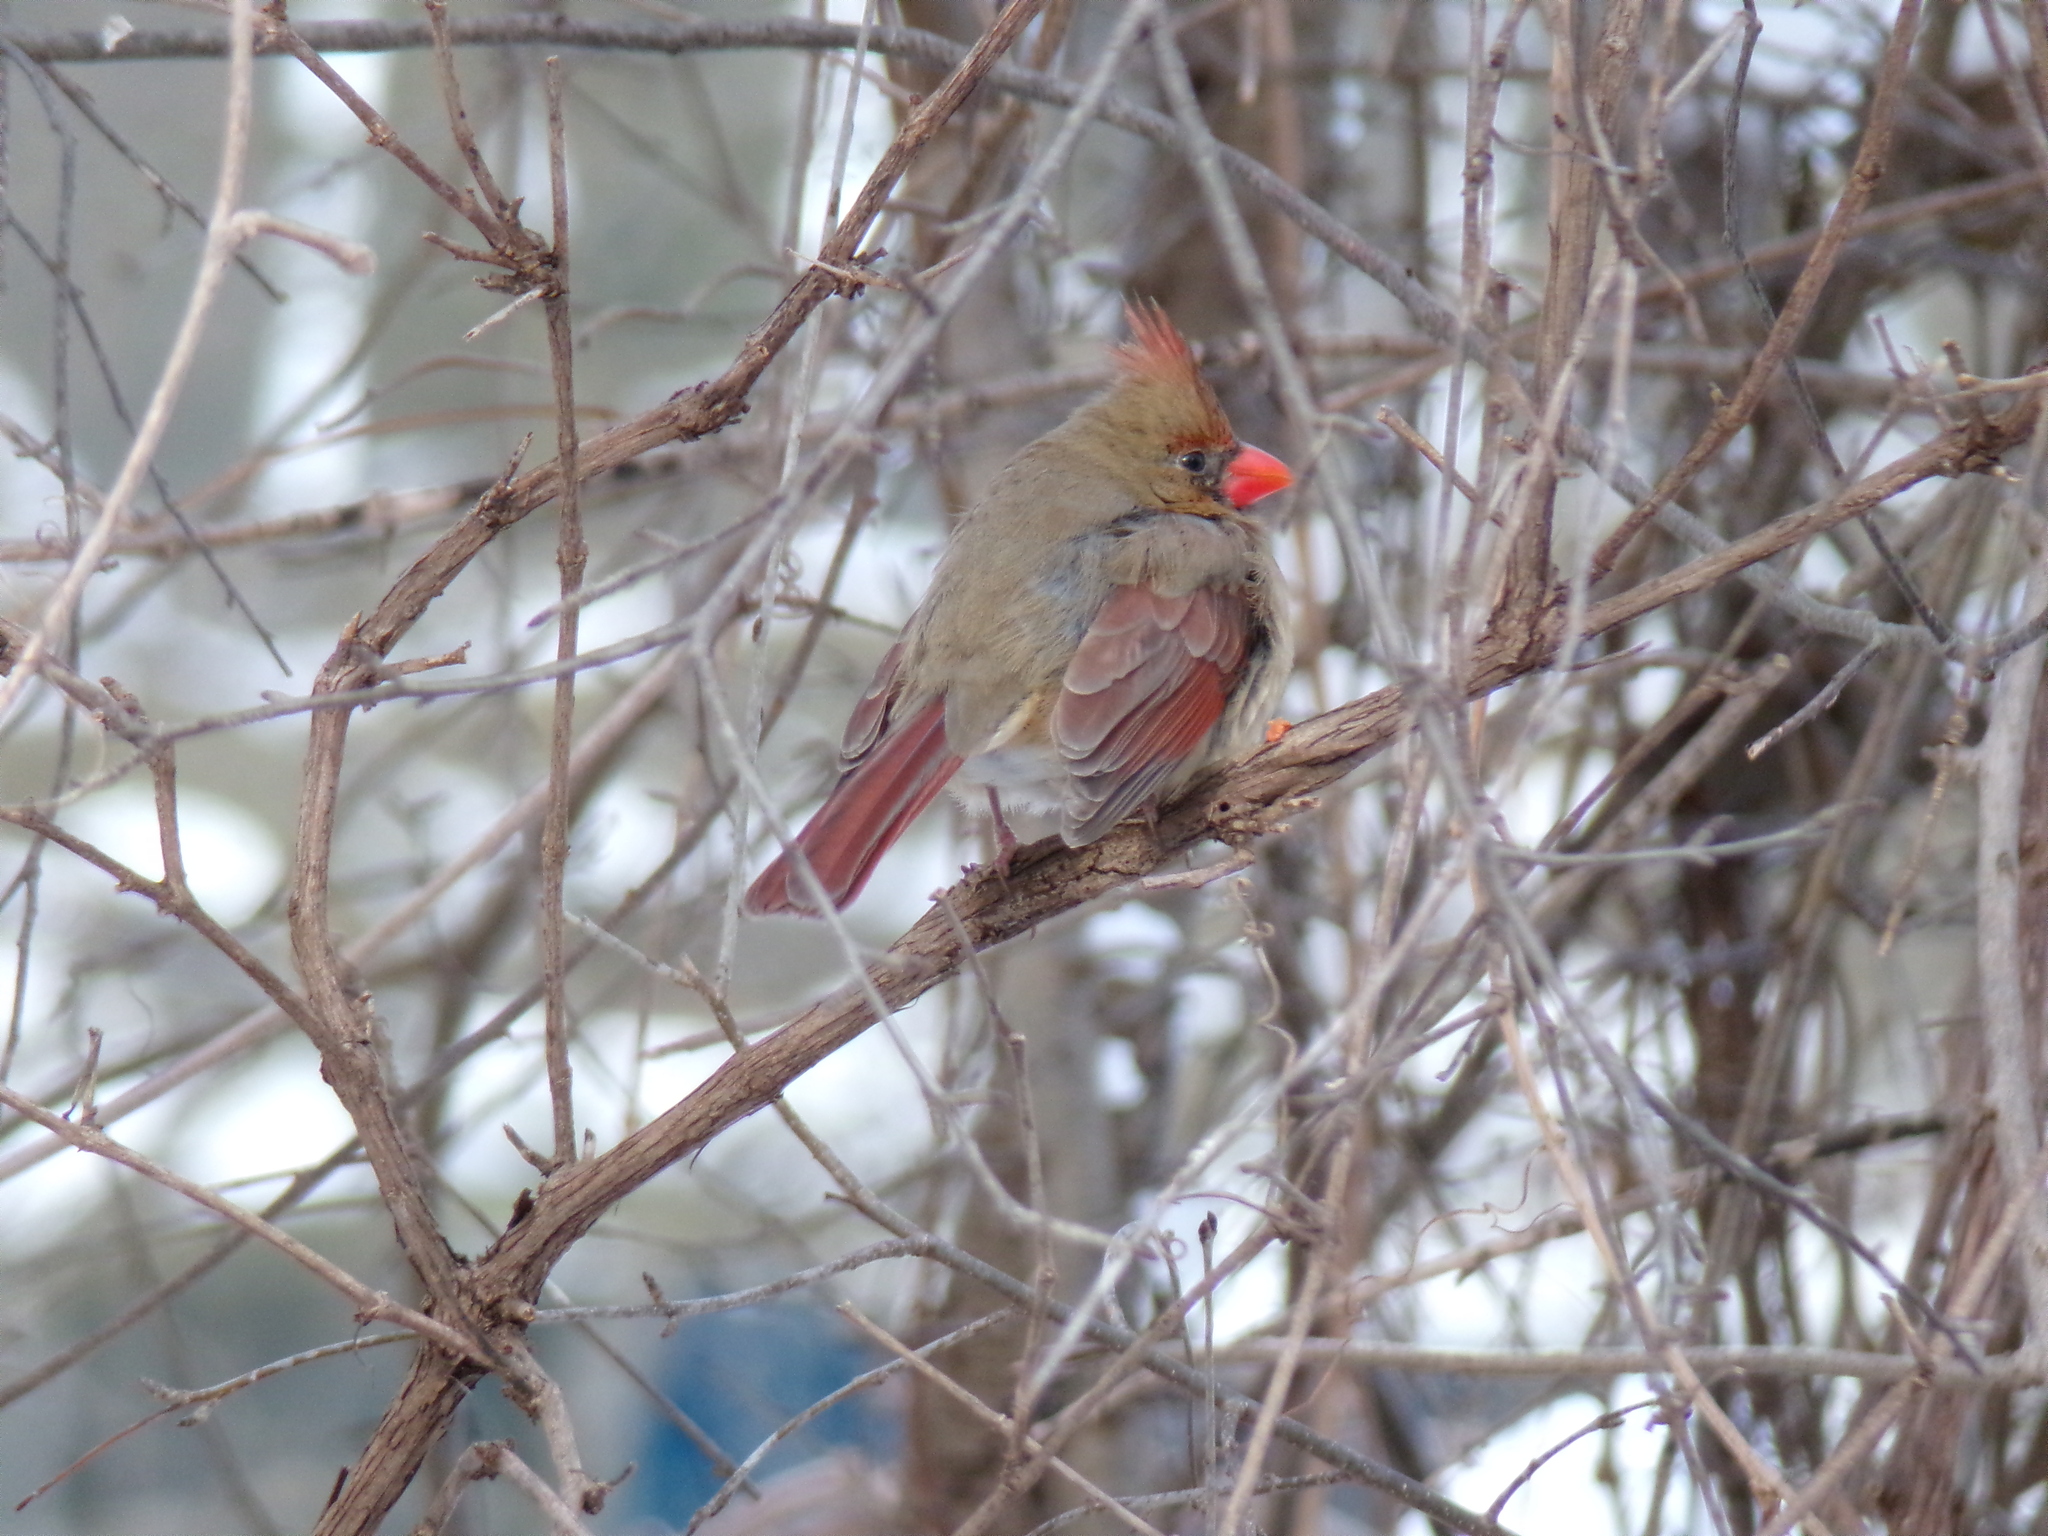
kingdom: Animalia
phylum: Chordata
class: Aves
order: Passeriformes
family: Cardinalidae
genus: Cardinalis
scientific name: Cardinalis cardinalis
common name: Northern cardinal
